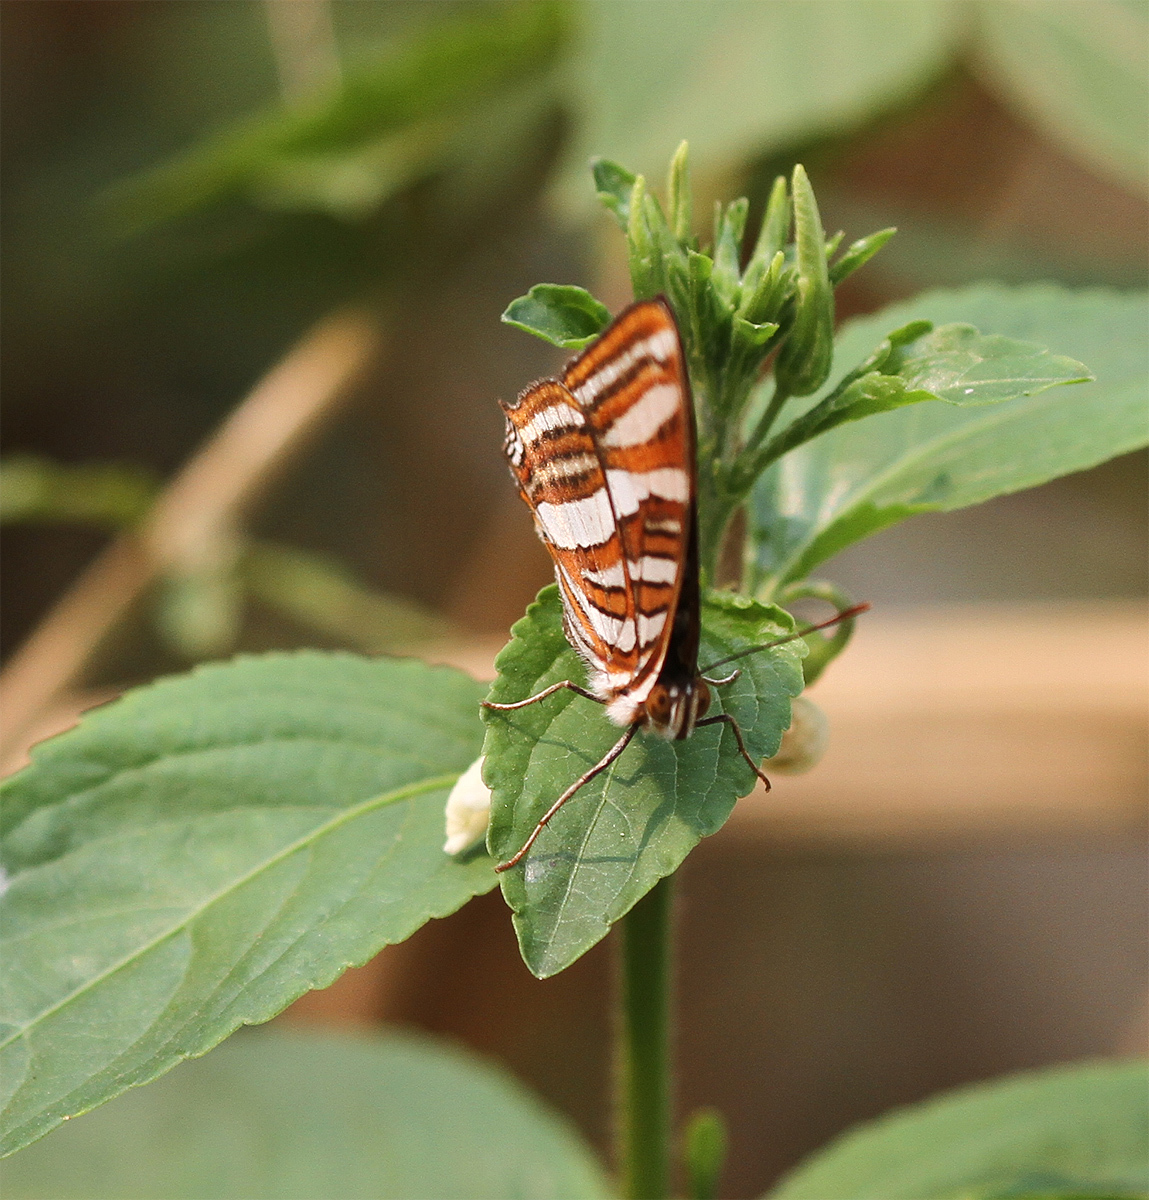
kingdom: Animalia
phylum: Arthropoda
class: Insecta
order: Lepidoptera
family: Nymphalidae
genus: Limenitis
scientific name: Limenitis syma
